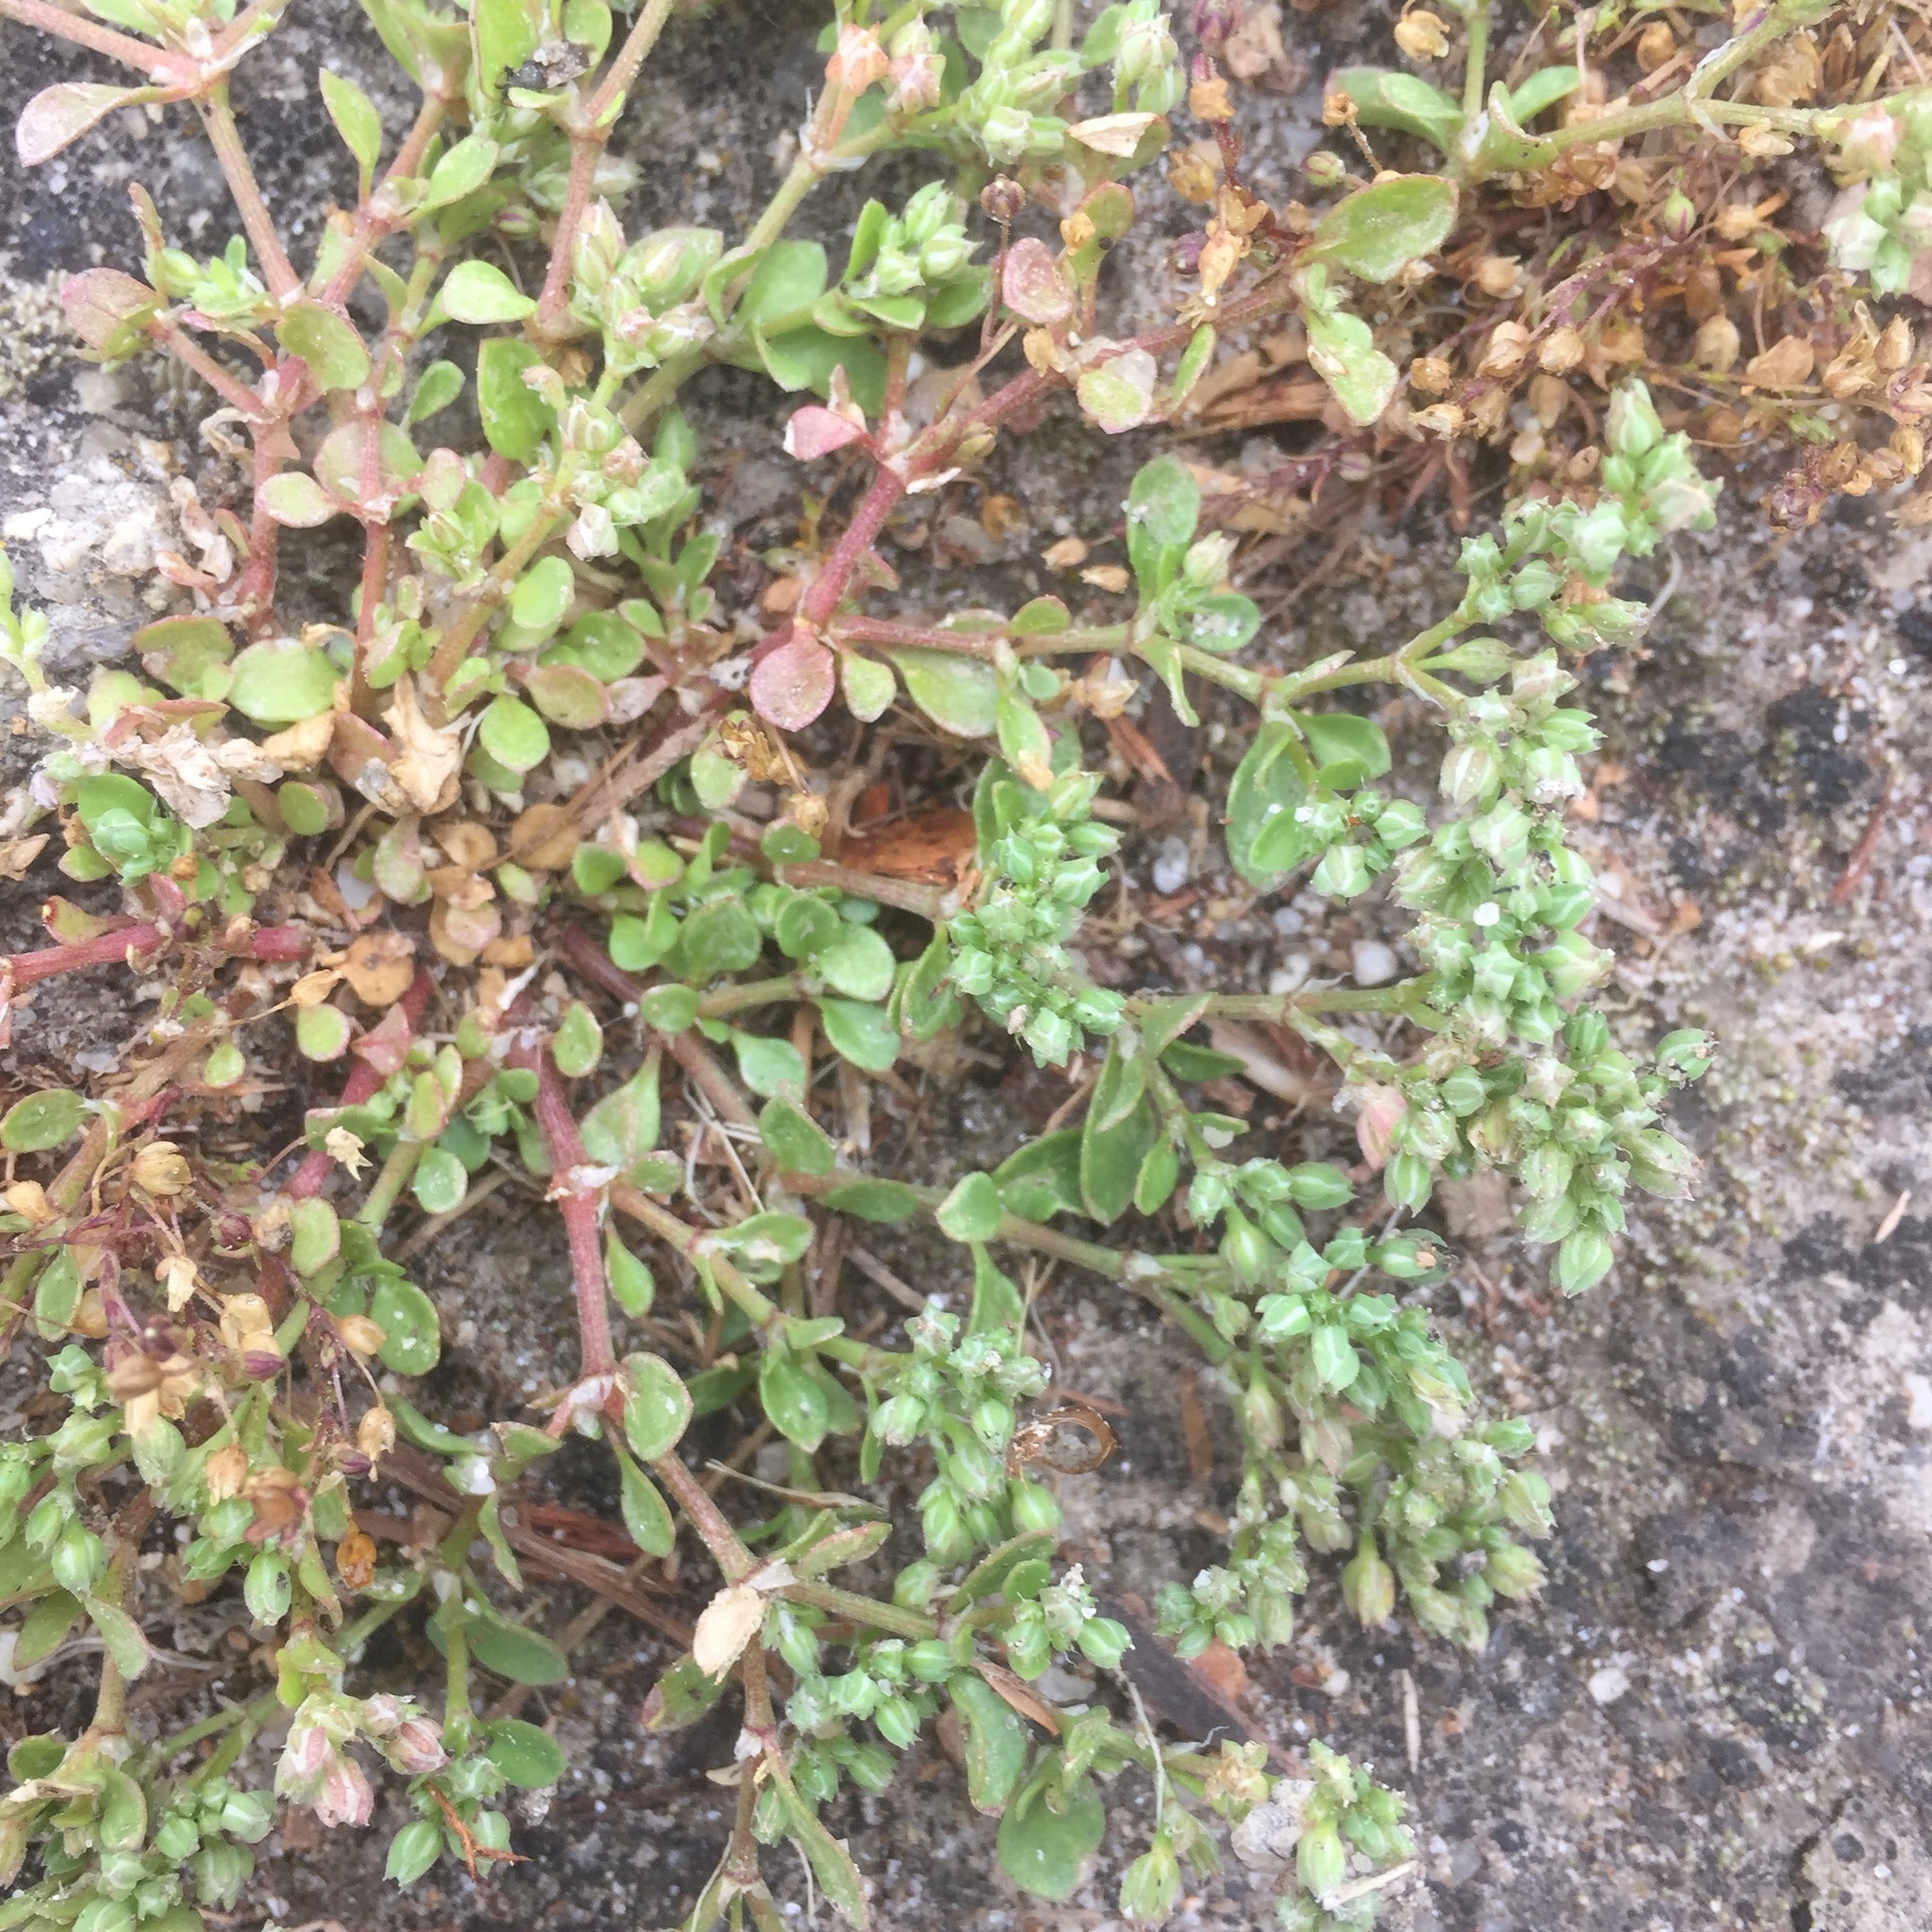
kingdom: Plantae
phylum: Tracheophyta
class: Magnoliopsida
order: Caryophyllales
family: Caryophyllaceae
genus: Polycarpon
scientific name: Polycarpon tetraphyllum
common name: Four-leaved all-seed
